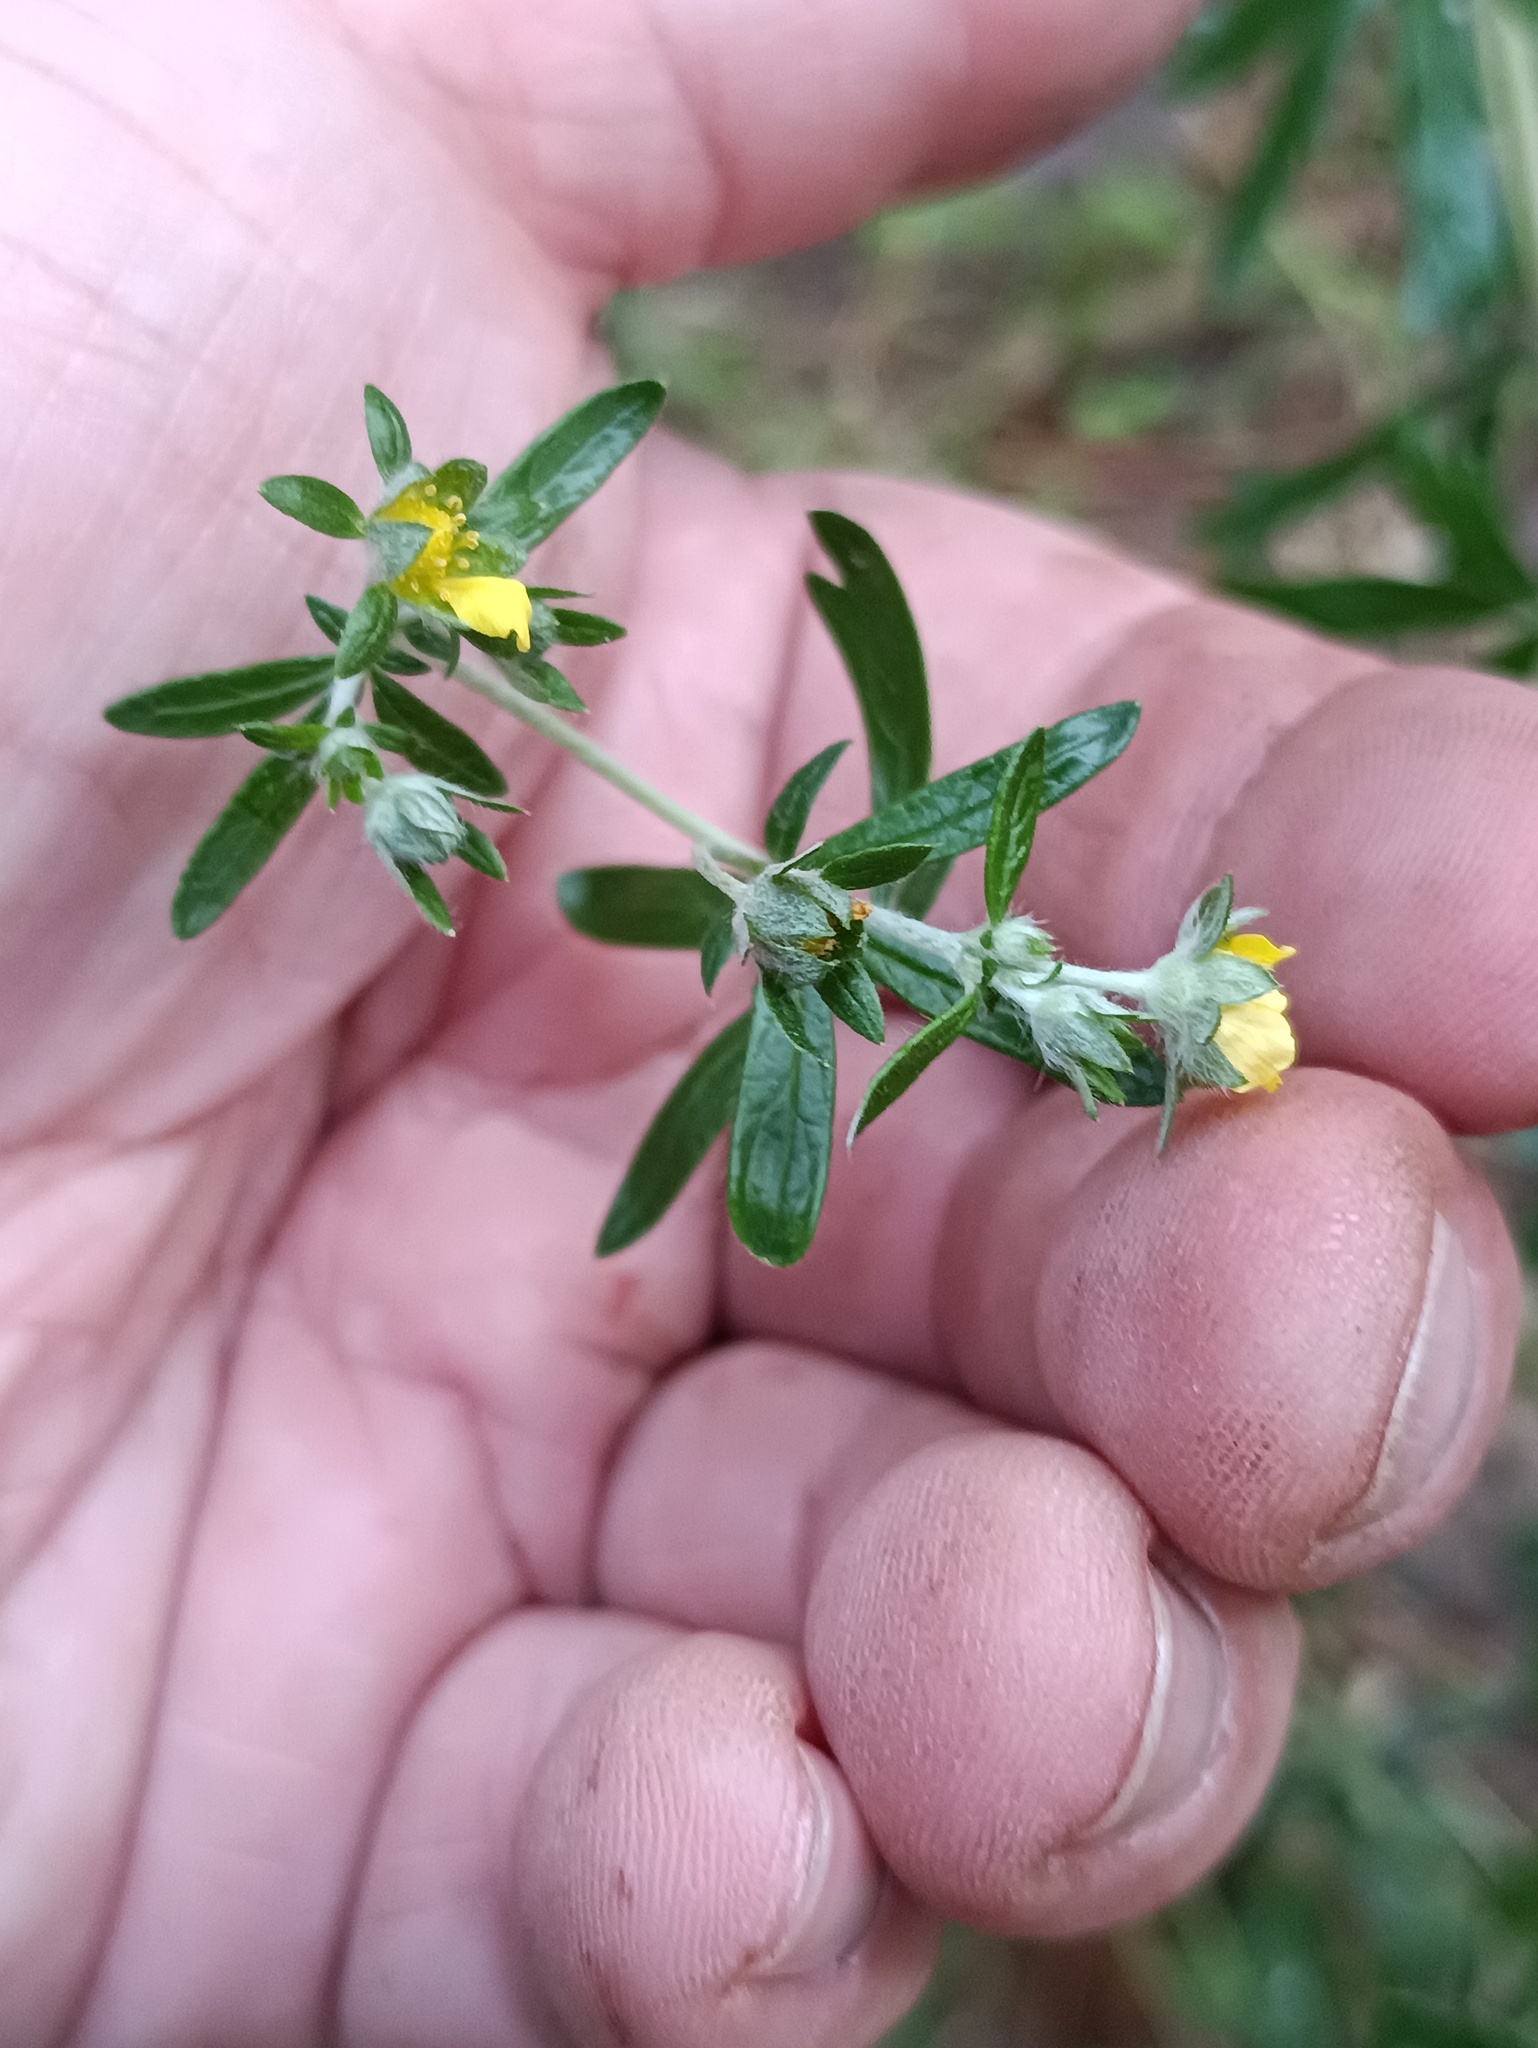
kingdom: Plantae
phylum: Tracheophyta
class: Magnoliopsida
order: Rosales
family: Rosaceae
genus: Potentilla
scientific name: Potentilla argentea
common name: Hoary cinquefoil
